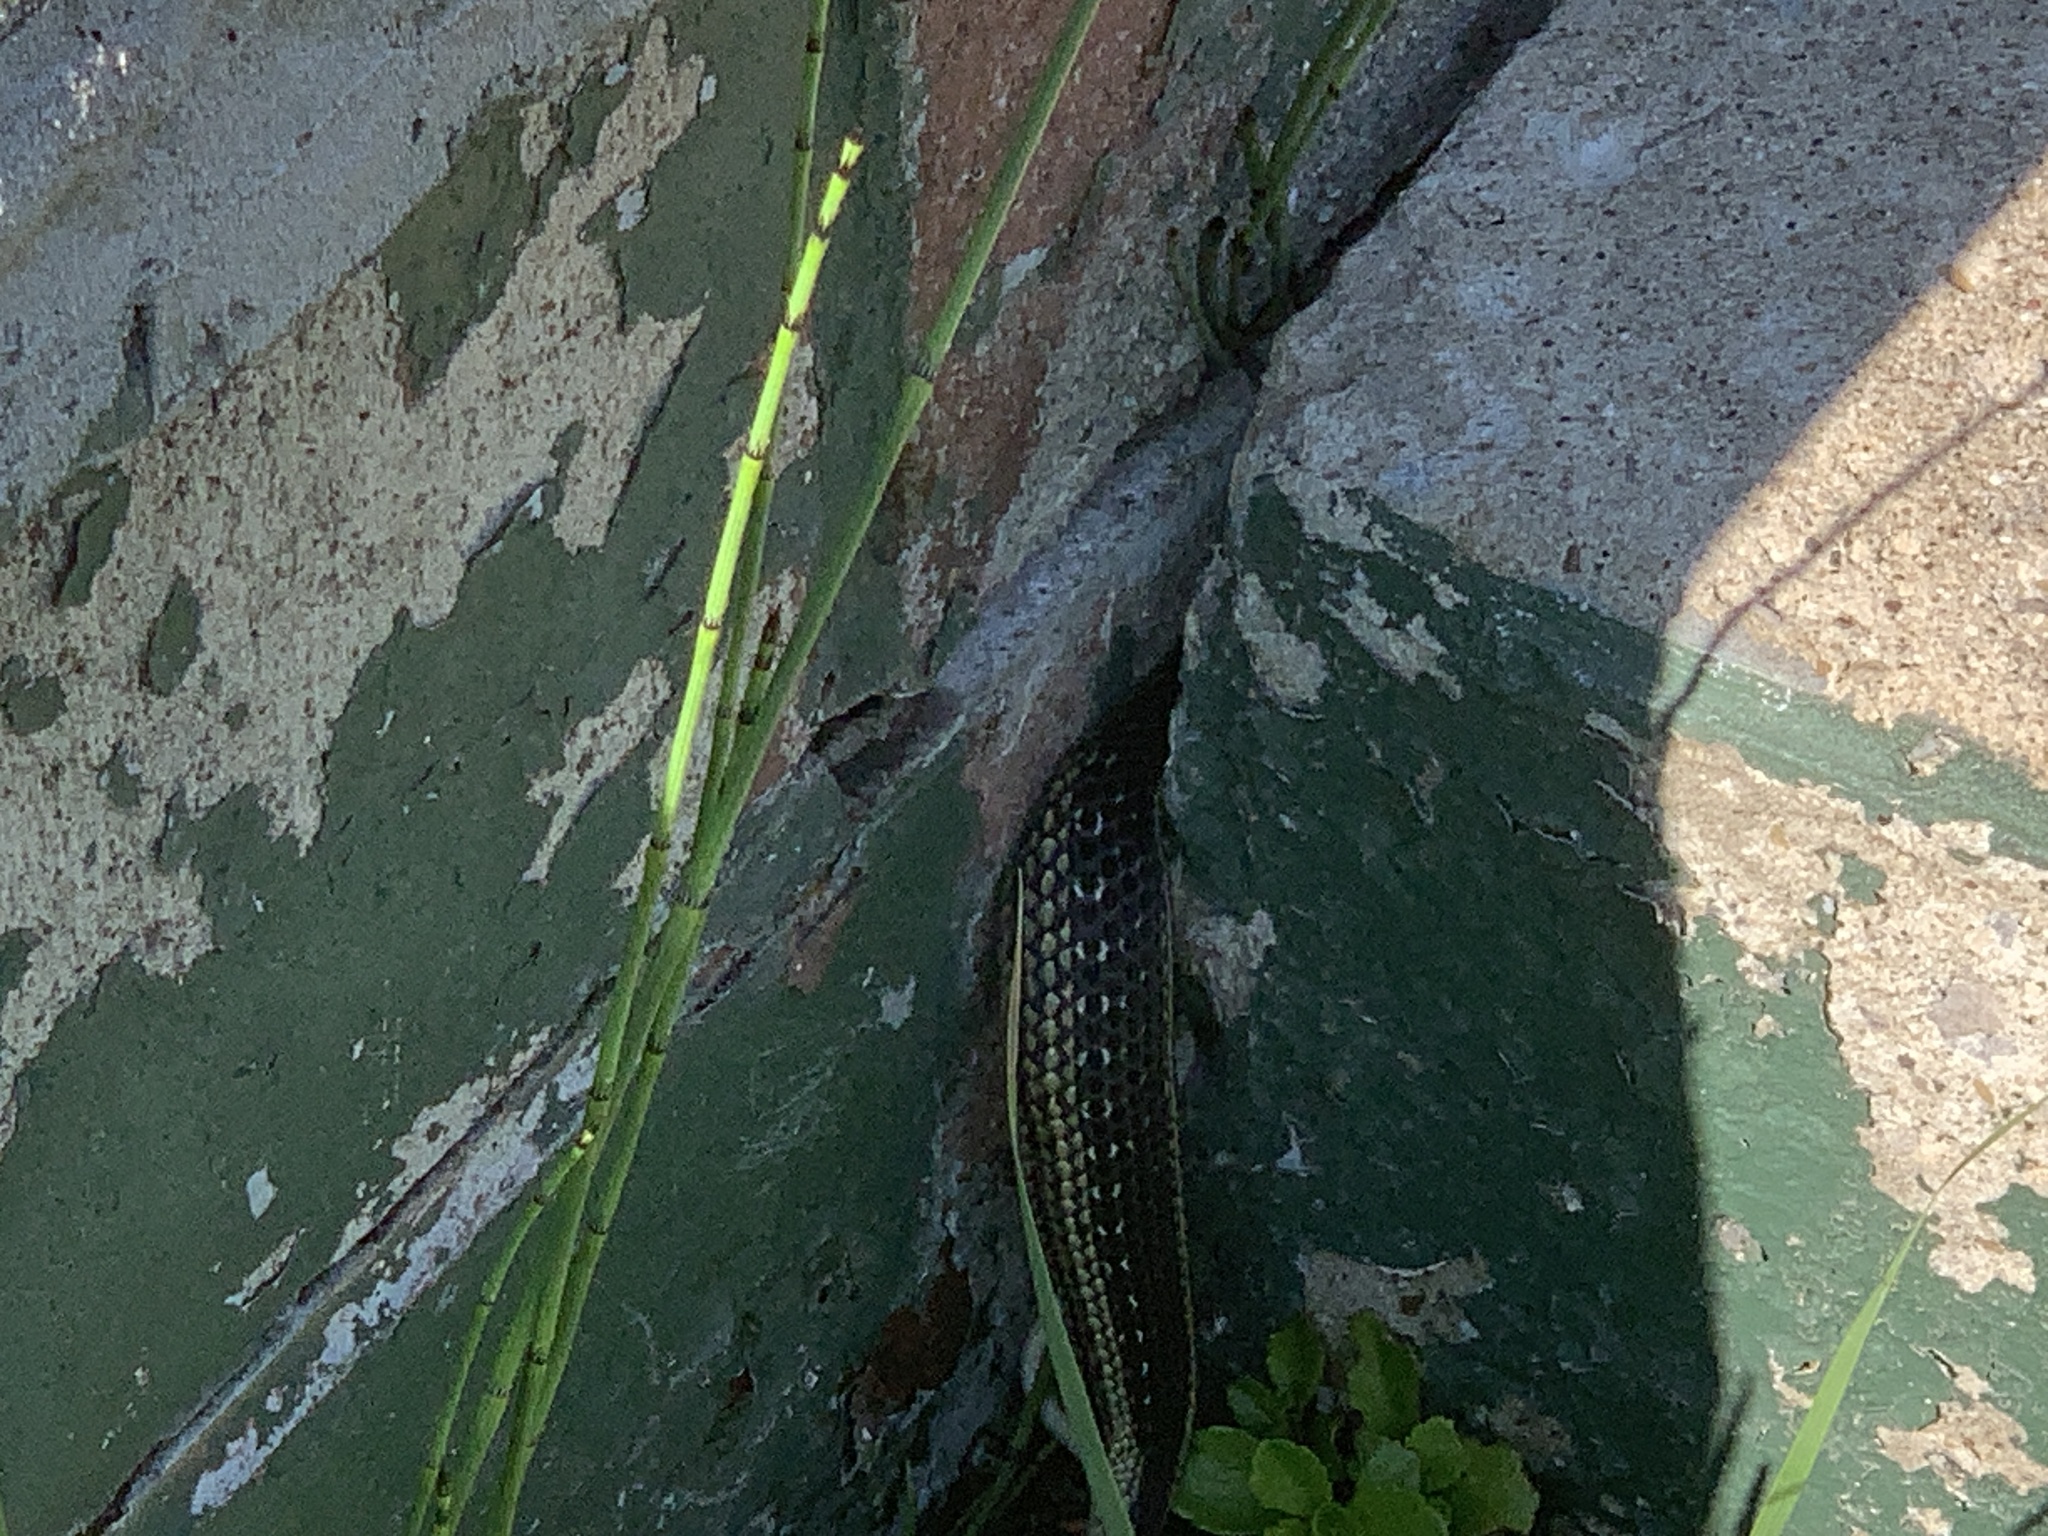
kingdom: Animalia
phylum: Chordata
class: Squamata
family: Colubridae
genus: Thamnophis
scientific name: Thamnophis sirtalis
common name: Common garter snake
